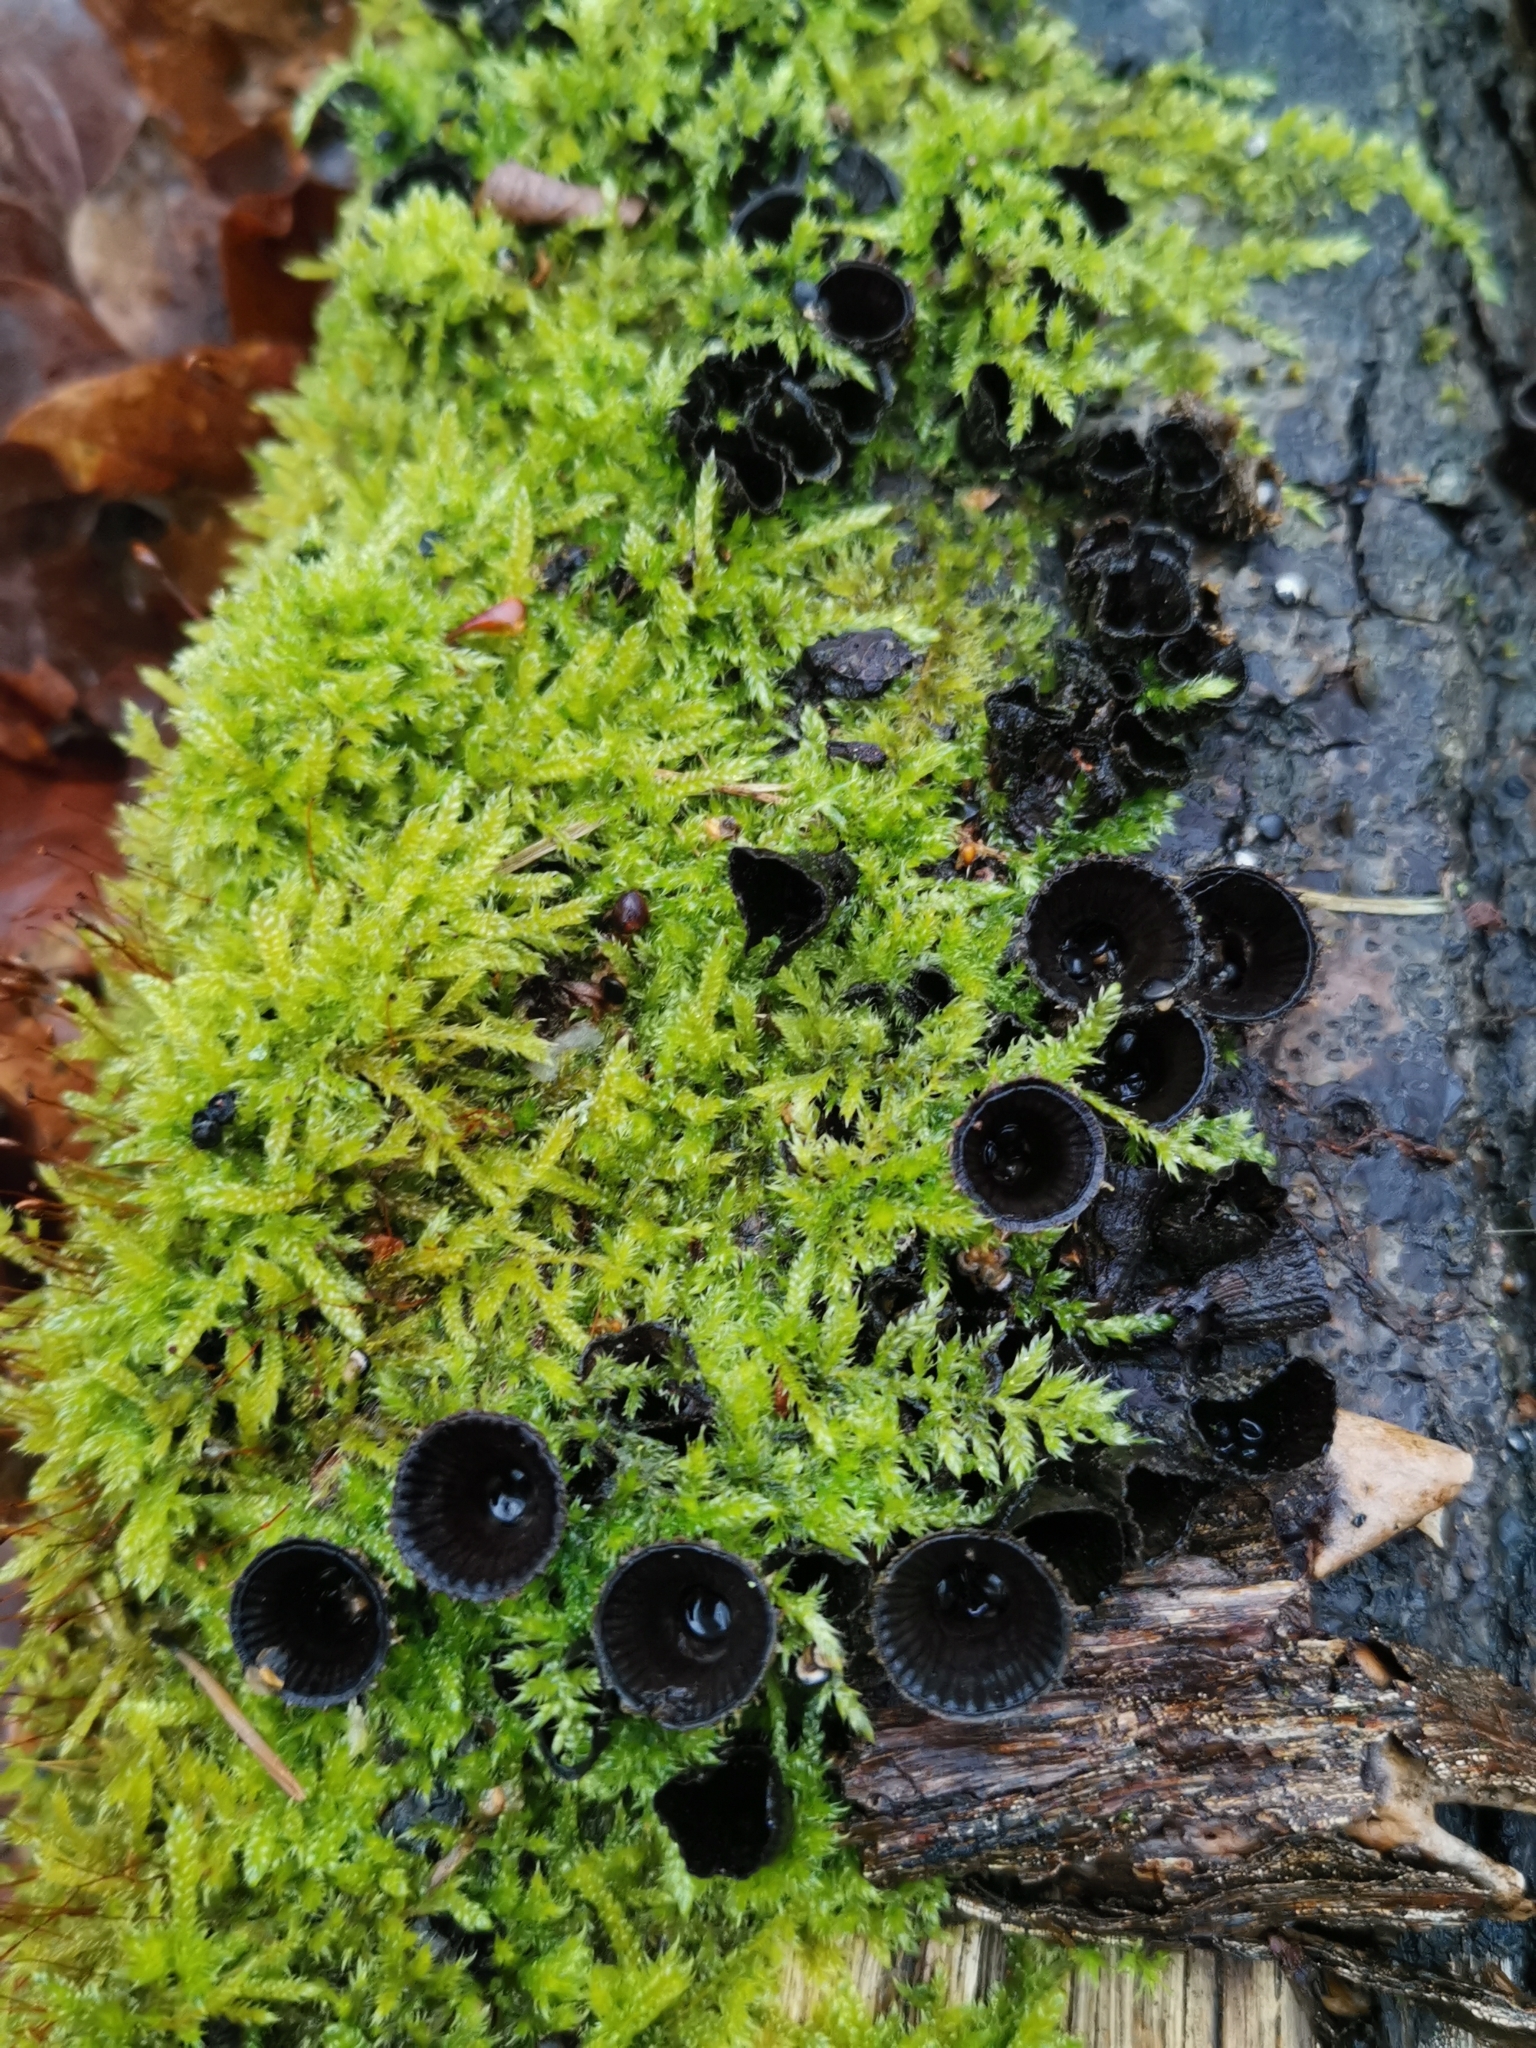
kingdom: Fungi
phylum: Basidiomycota
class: Agaricomycetes
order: Agaricales
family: Agaricaceae
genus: Cyathus
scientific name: Cyathus striatus
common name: Fluted bird's nest
